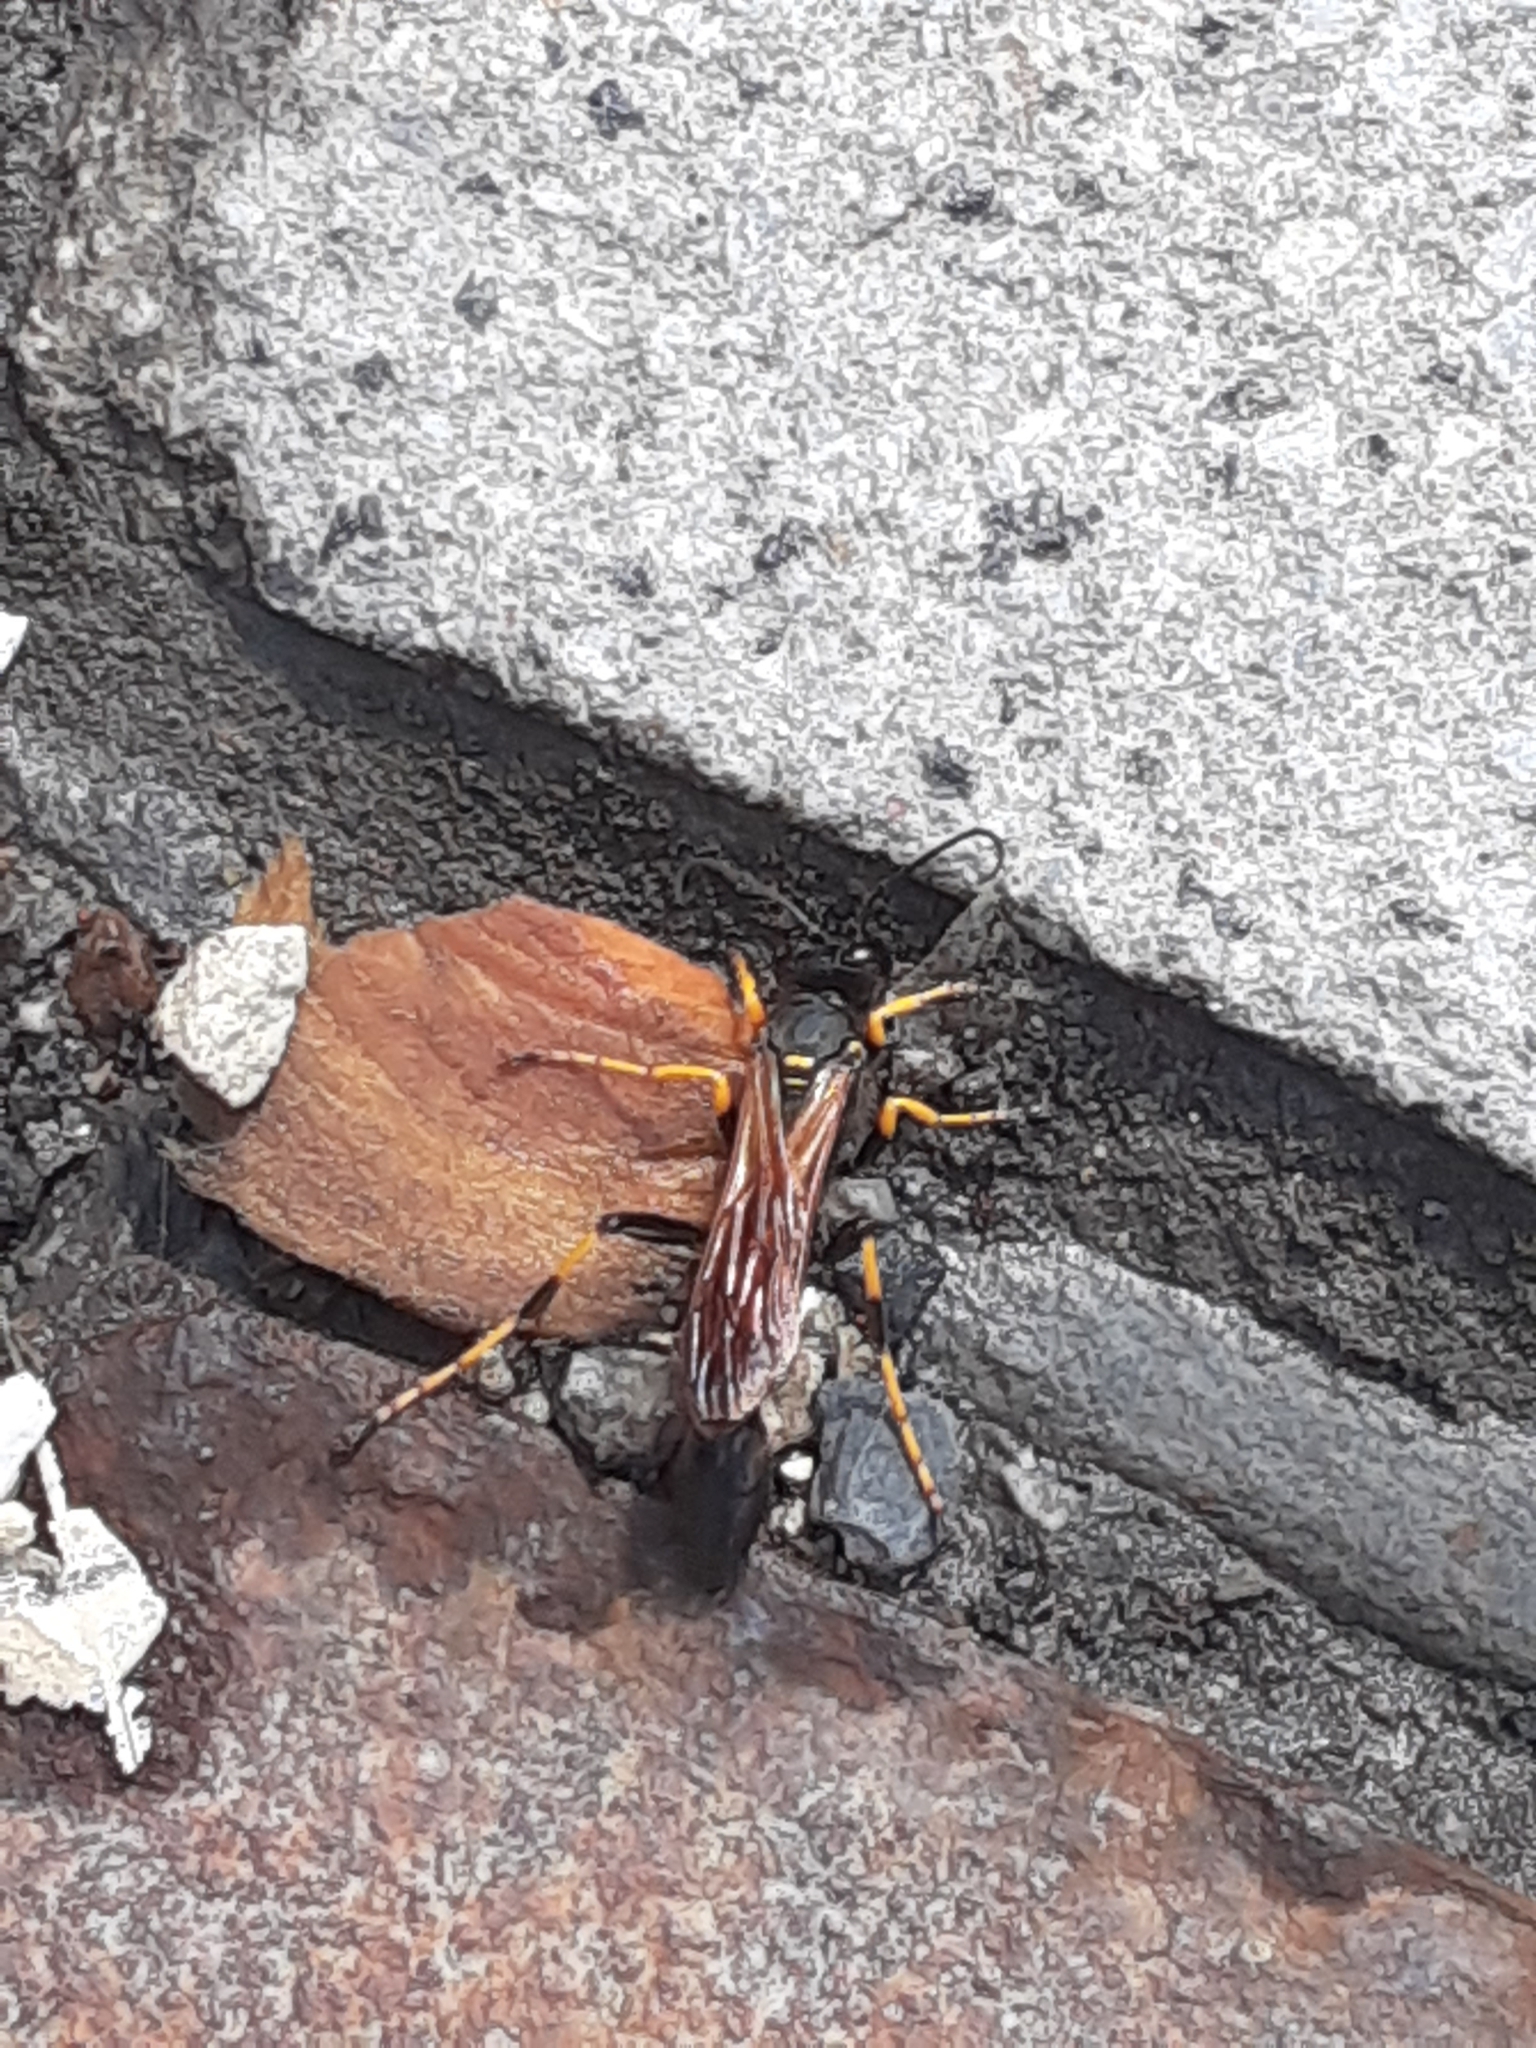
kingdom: Animalia
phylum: Arthropoda
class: Insecta
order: Hymenoptera
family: Sphecidae
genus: Sceliphron
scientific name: Sceliphron caementarium
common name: Mud dauber
